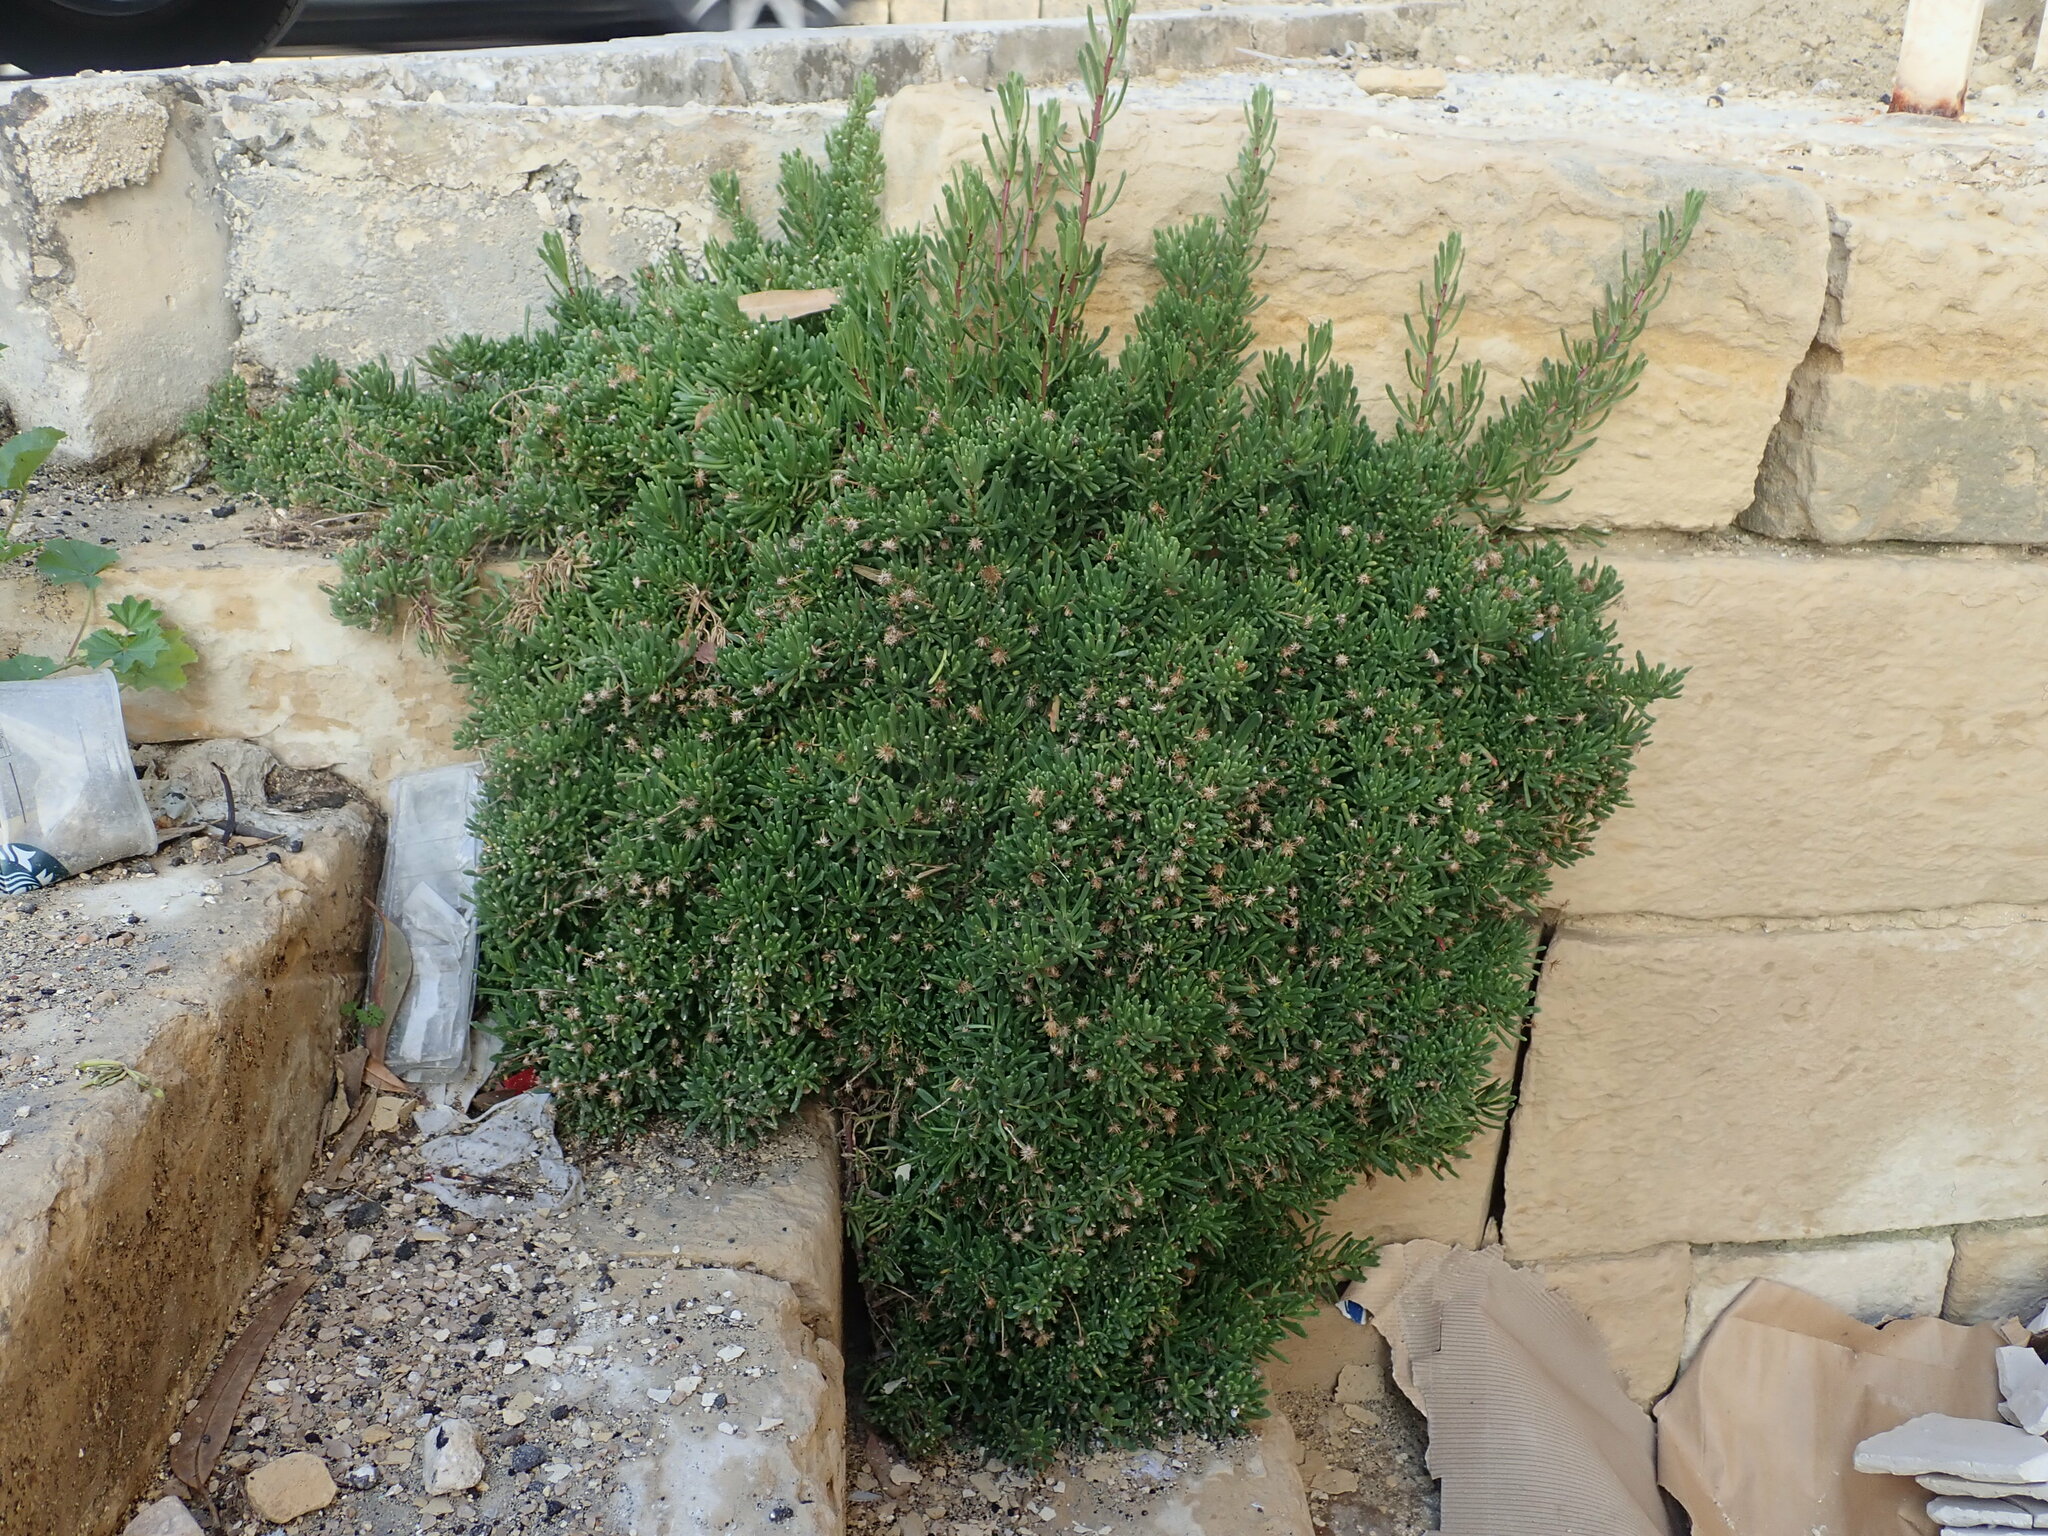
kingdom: Plantae
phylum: Tracheophyta
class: Magnoliopsida
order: Asterales
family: Asteraceae
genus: Limbarda
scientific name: Limbarda crithmoides
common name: Golden samphire
